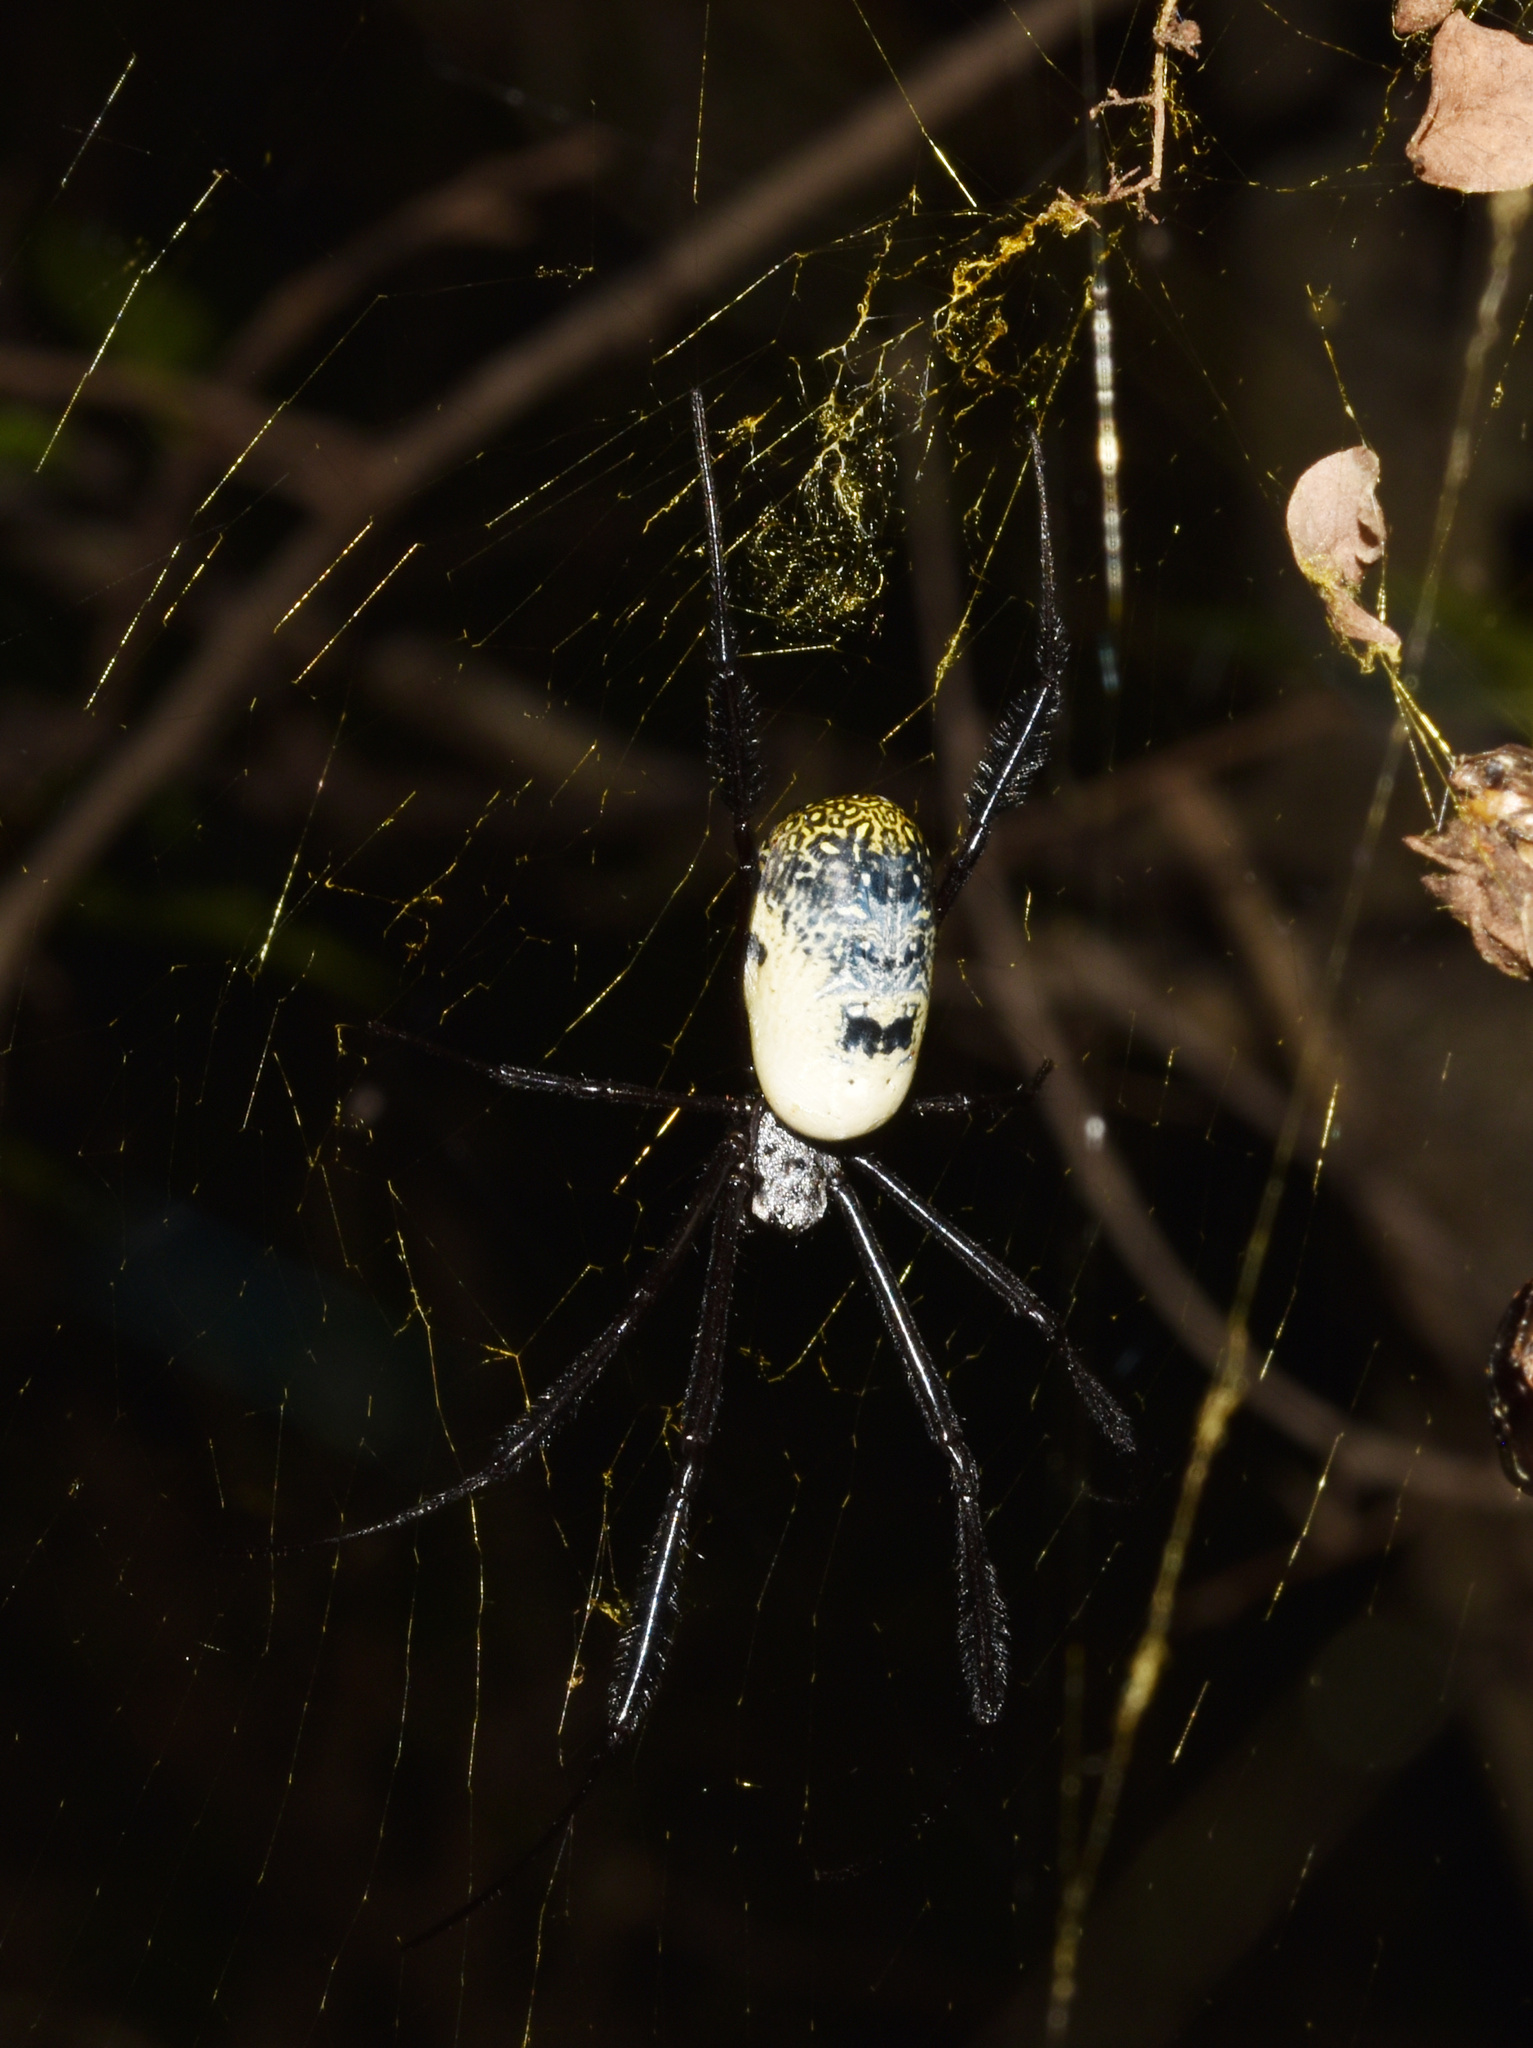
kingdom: Animalia
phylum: Arthropoda
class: Arachnida
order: Araneae
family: Araneidae
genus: Trichonephila
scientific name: Trichonephila fenestrata
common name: Hairy golden orb weaver
